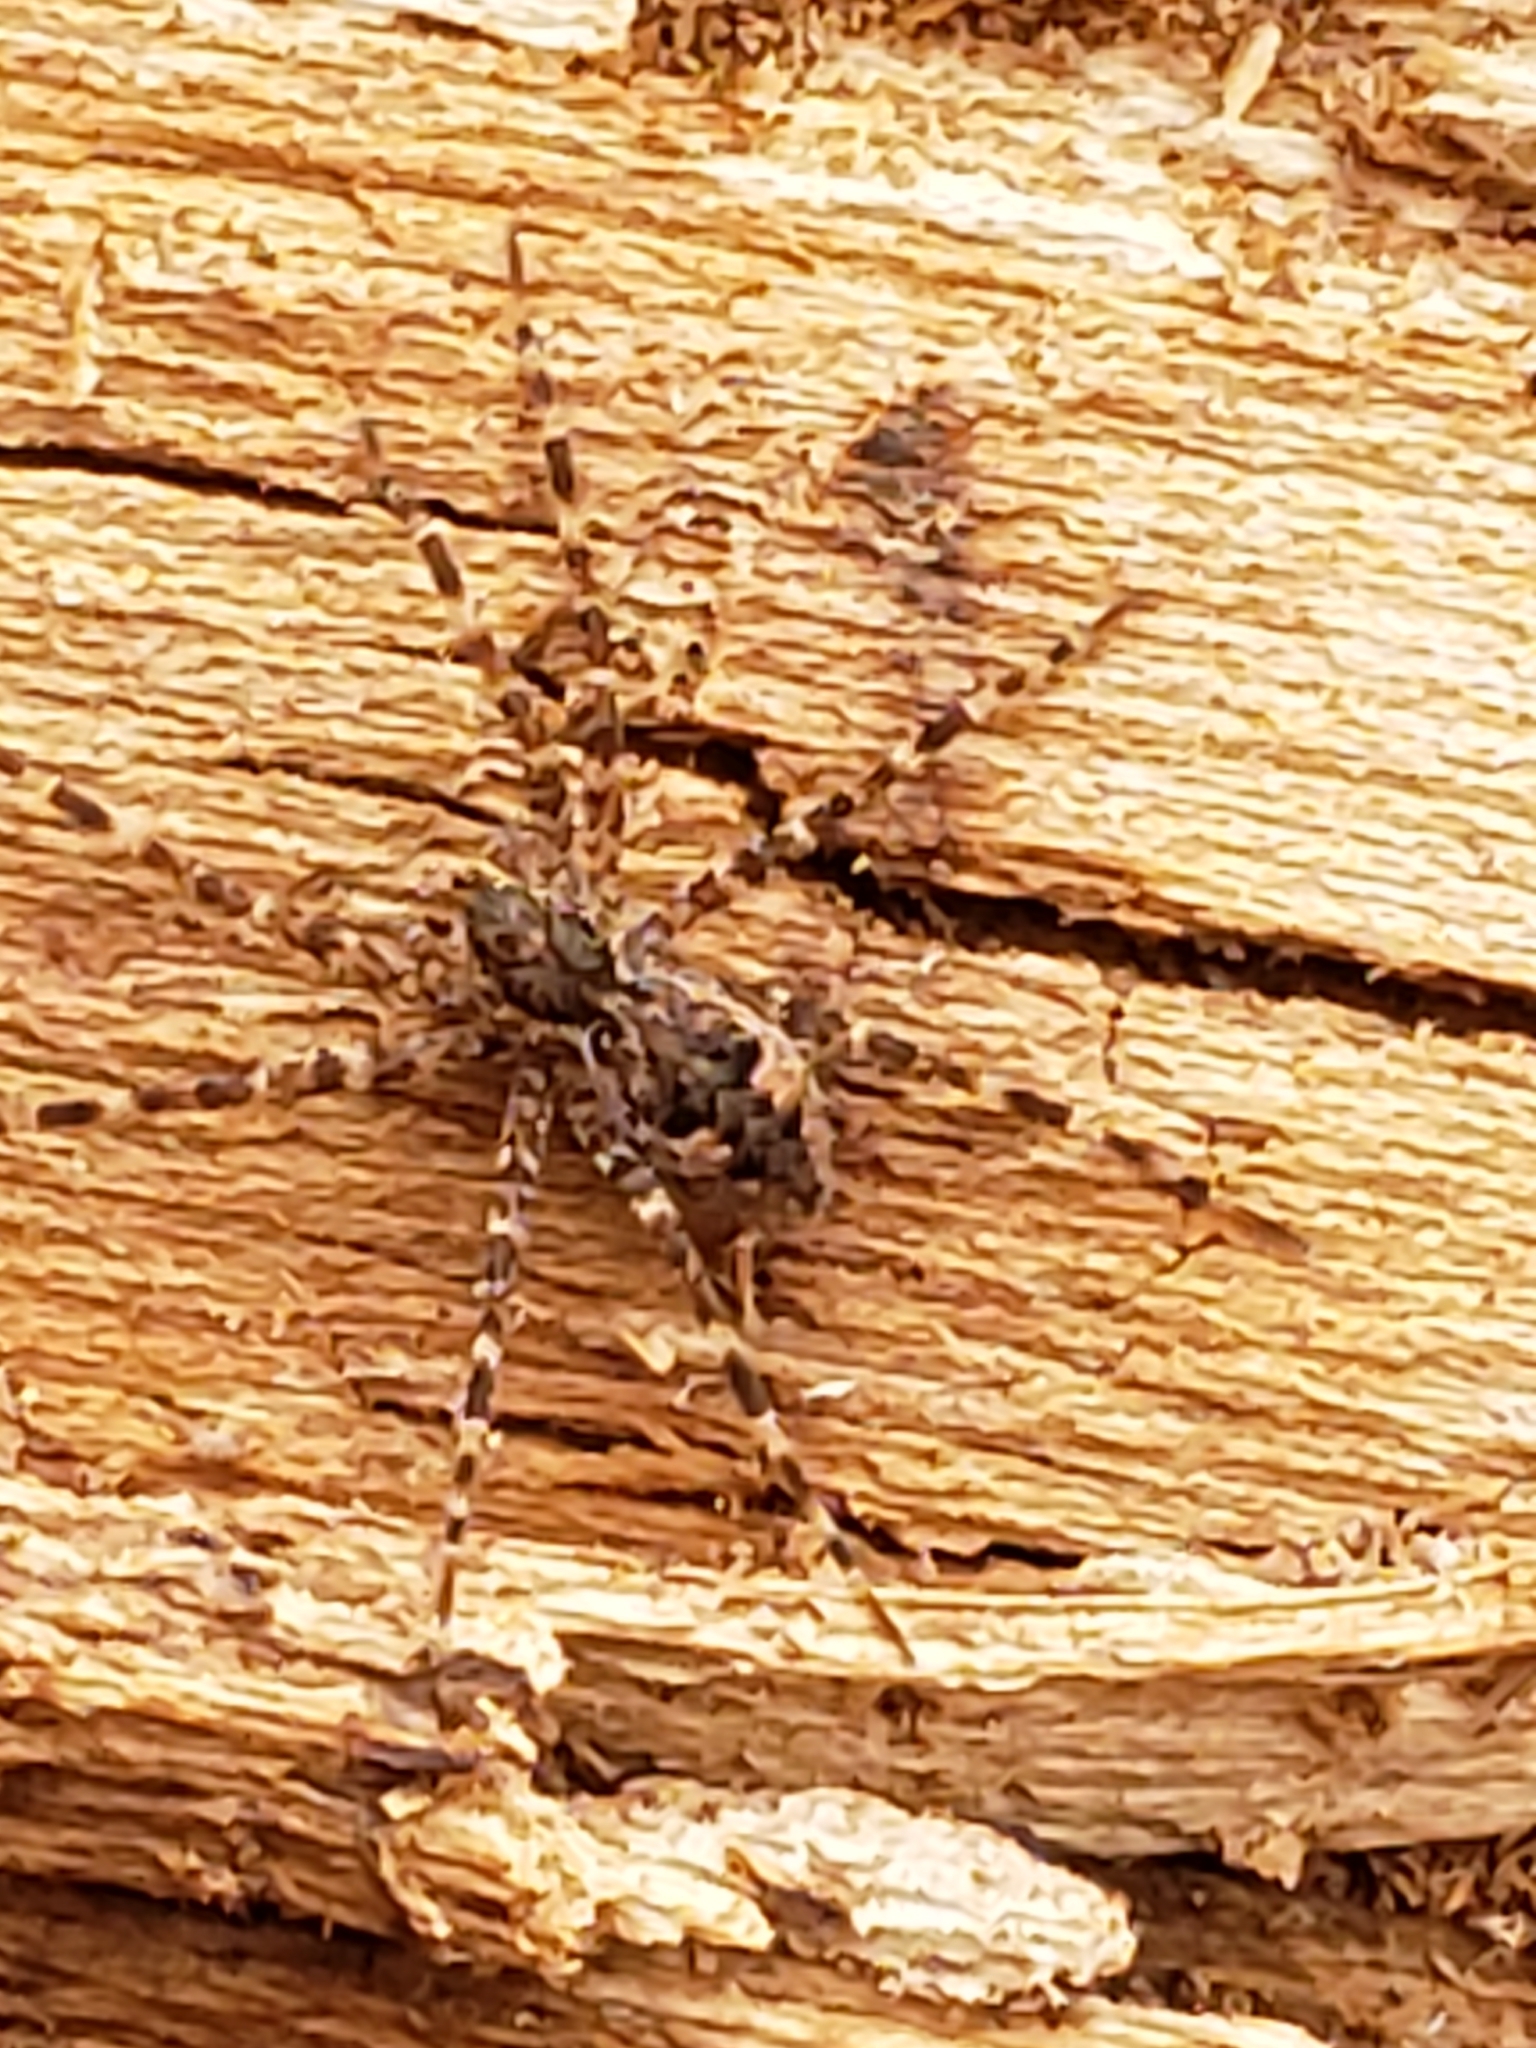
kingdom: Animalia
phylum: Arthropoda
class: Arachnida
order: Araneae
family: Pisauridae
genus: Dolomedes
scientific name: Dolomedes tenebrosus
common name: Dark fishing spider
